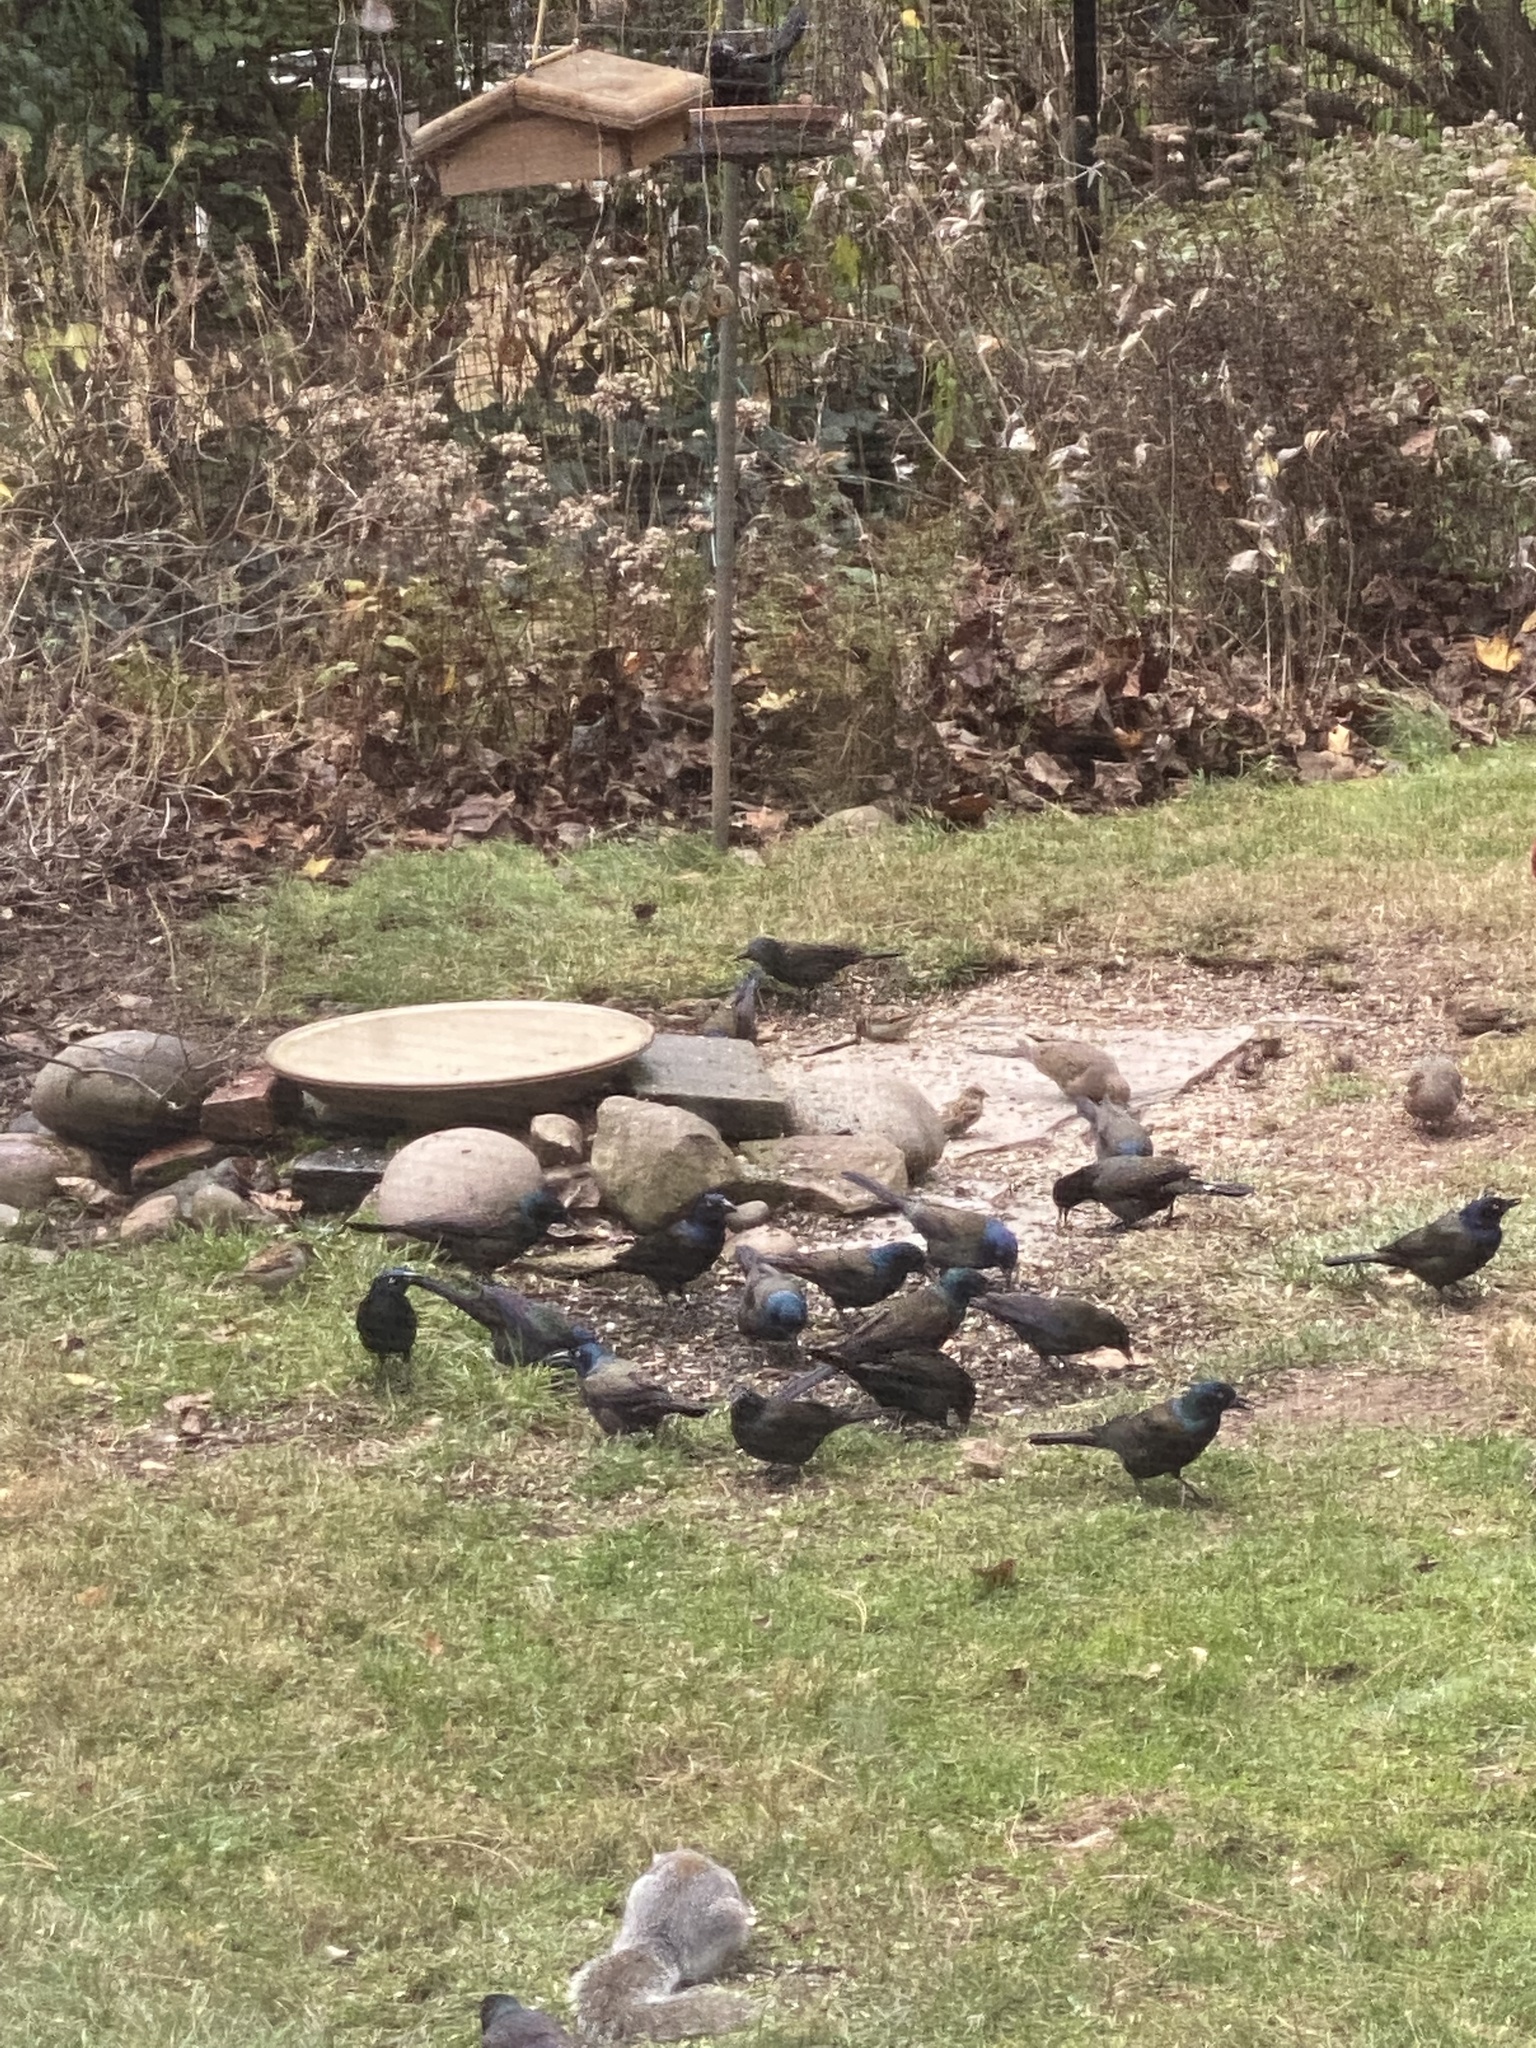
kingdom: Animalia
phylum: Chordata
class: Aves
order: Passeriformes
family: Icteridae
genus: Quiscalus
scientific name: Quiscalus quiscula
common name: Common grackle
